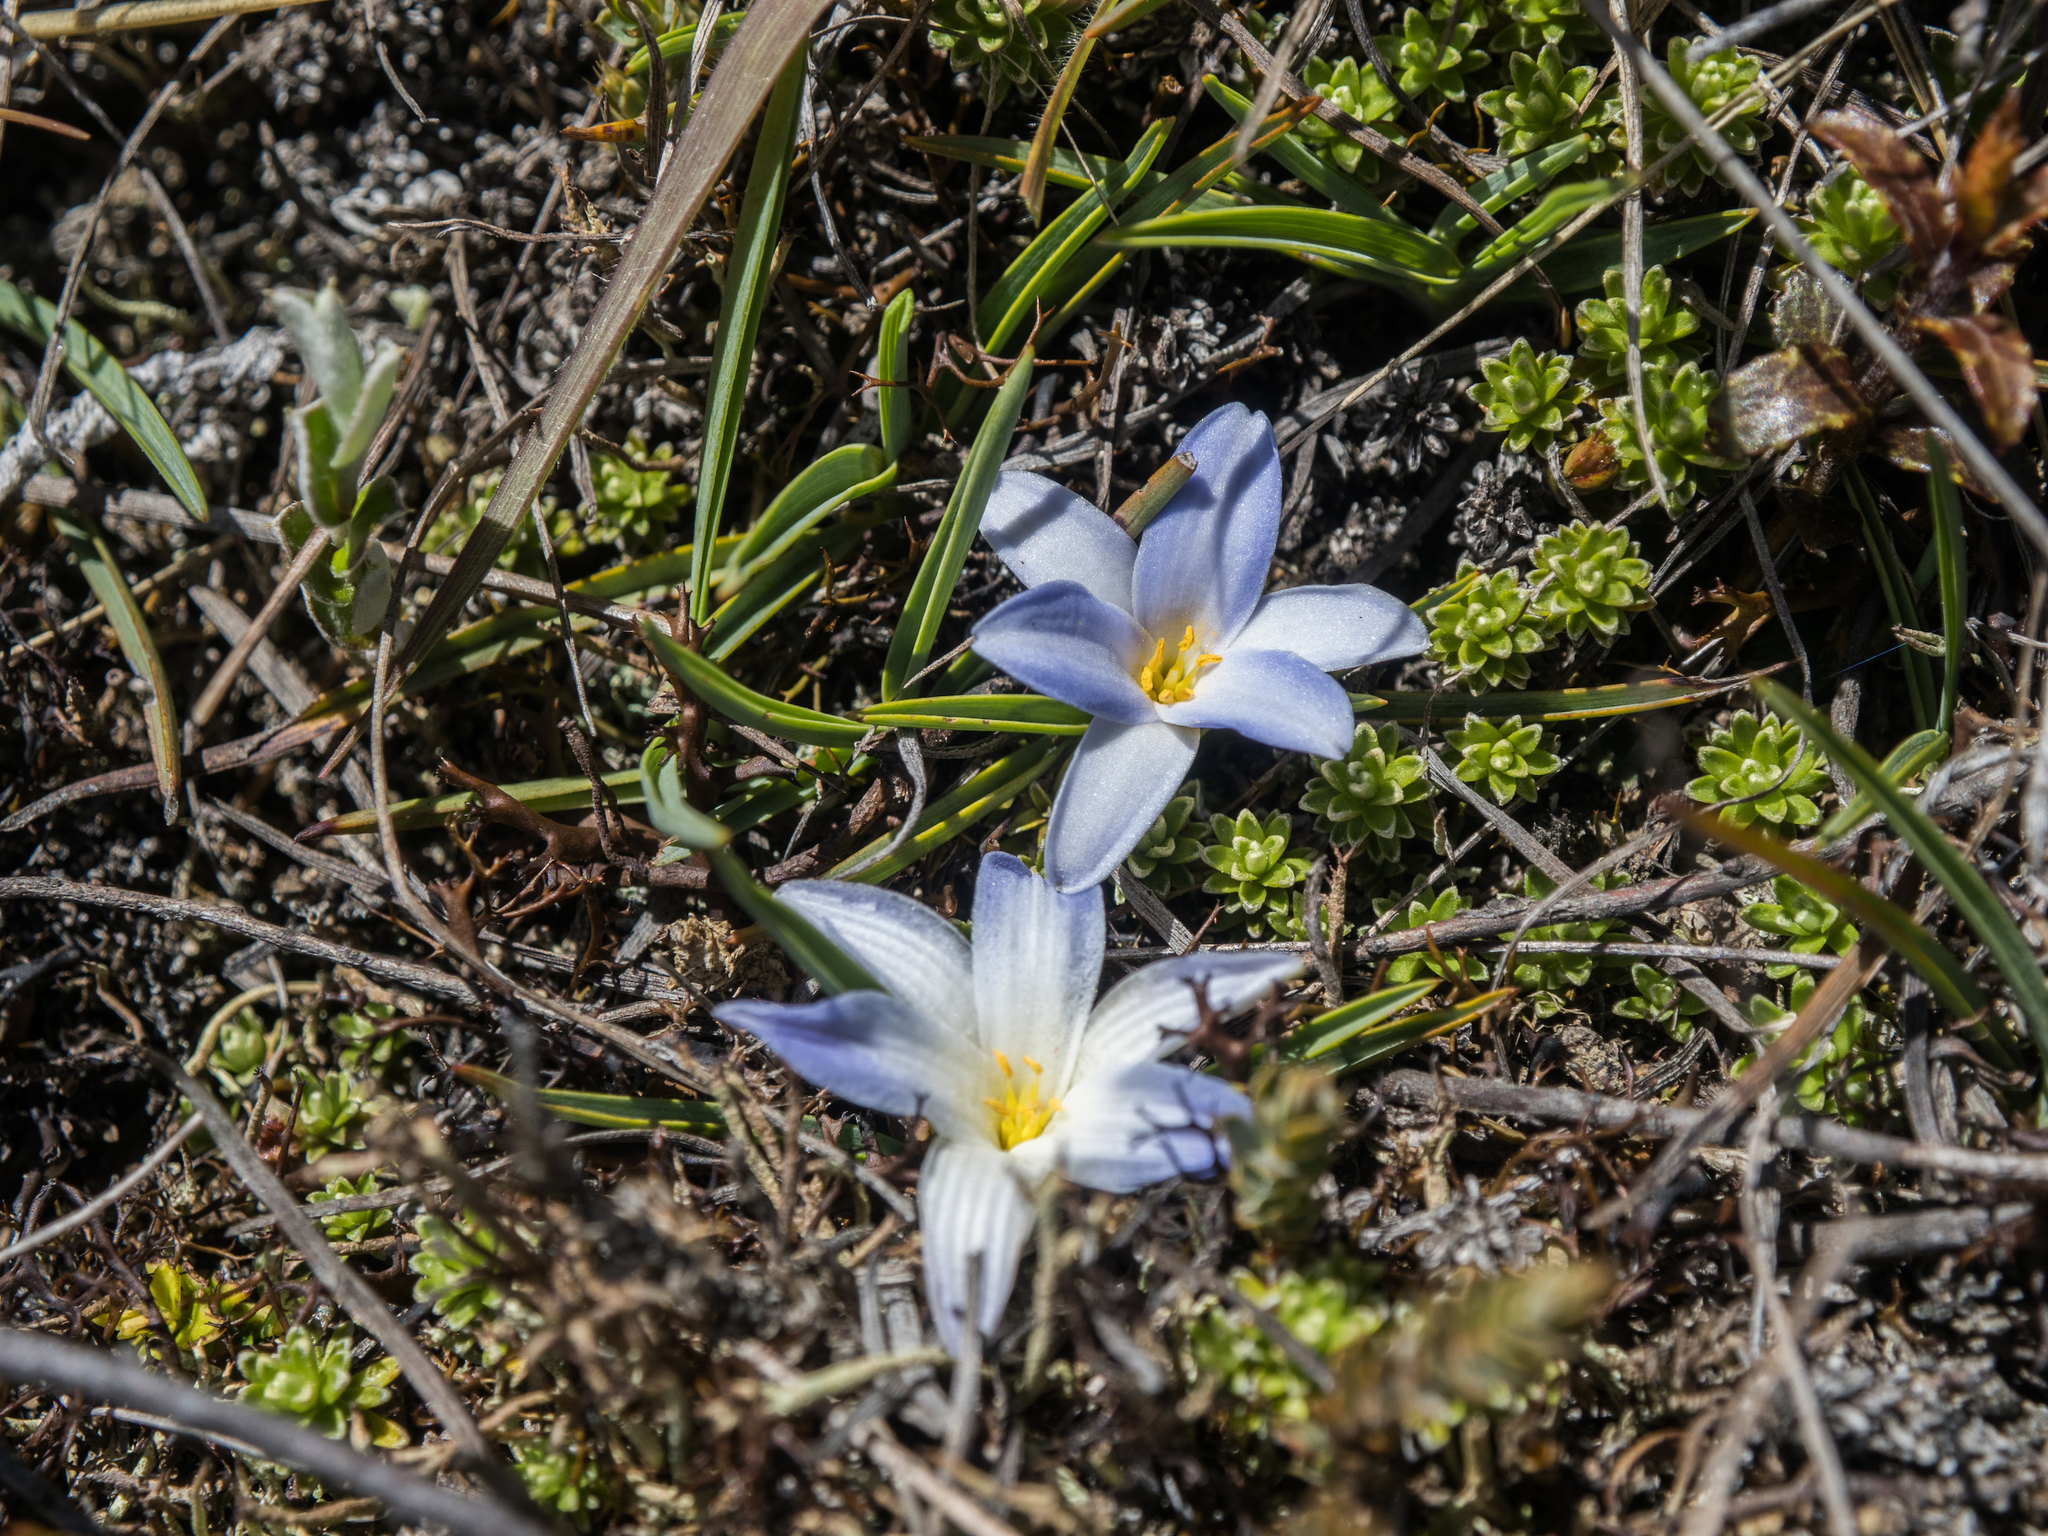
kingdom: Plantae
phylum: Tracheophyta
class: Liliopsida
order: Asparagales
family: Asphodelaceae
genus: Herpolirion
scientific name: Herpolirion novae-zelandiae
